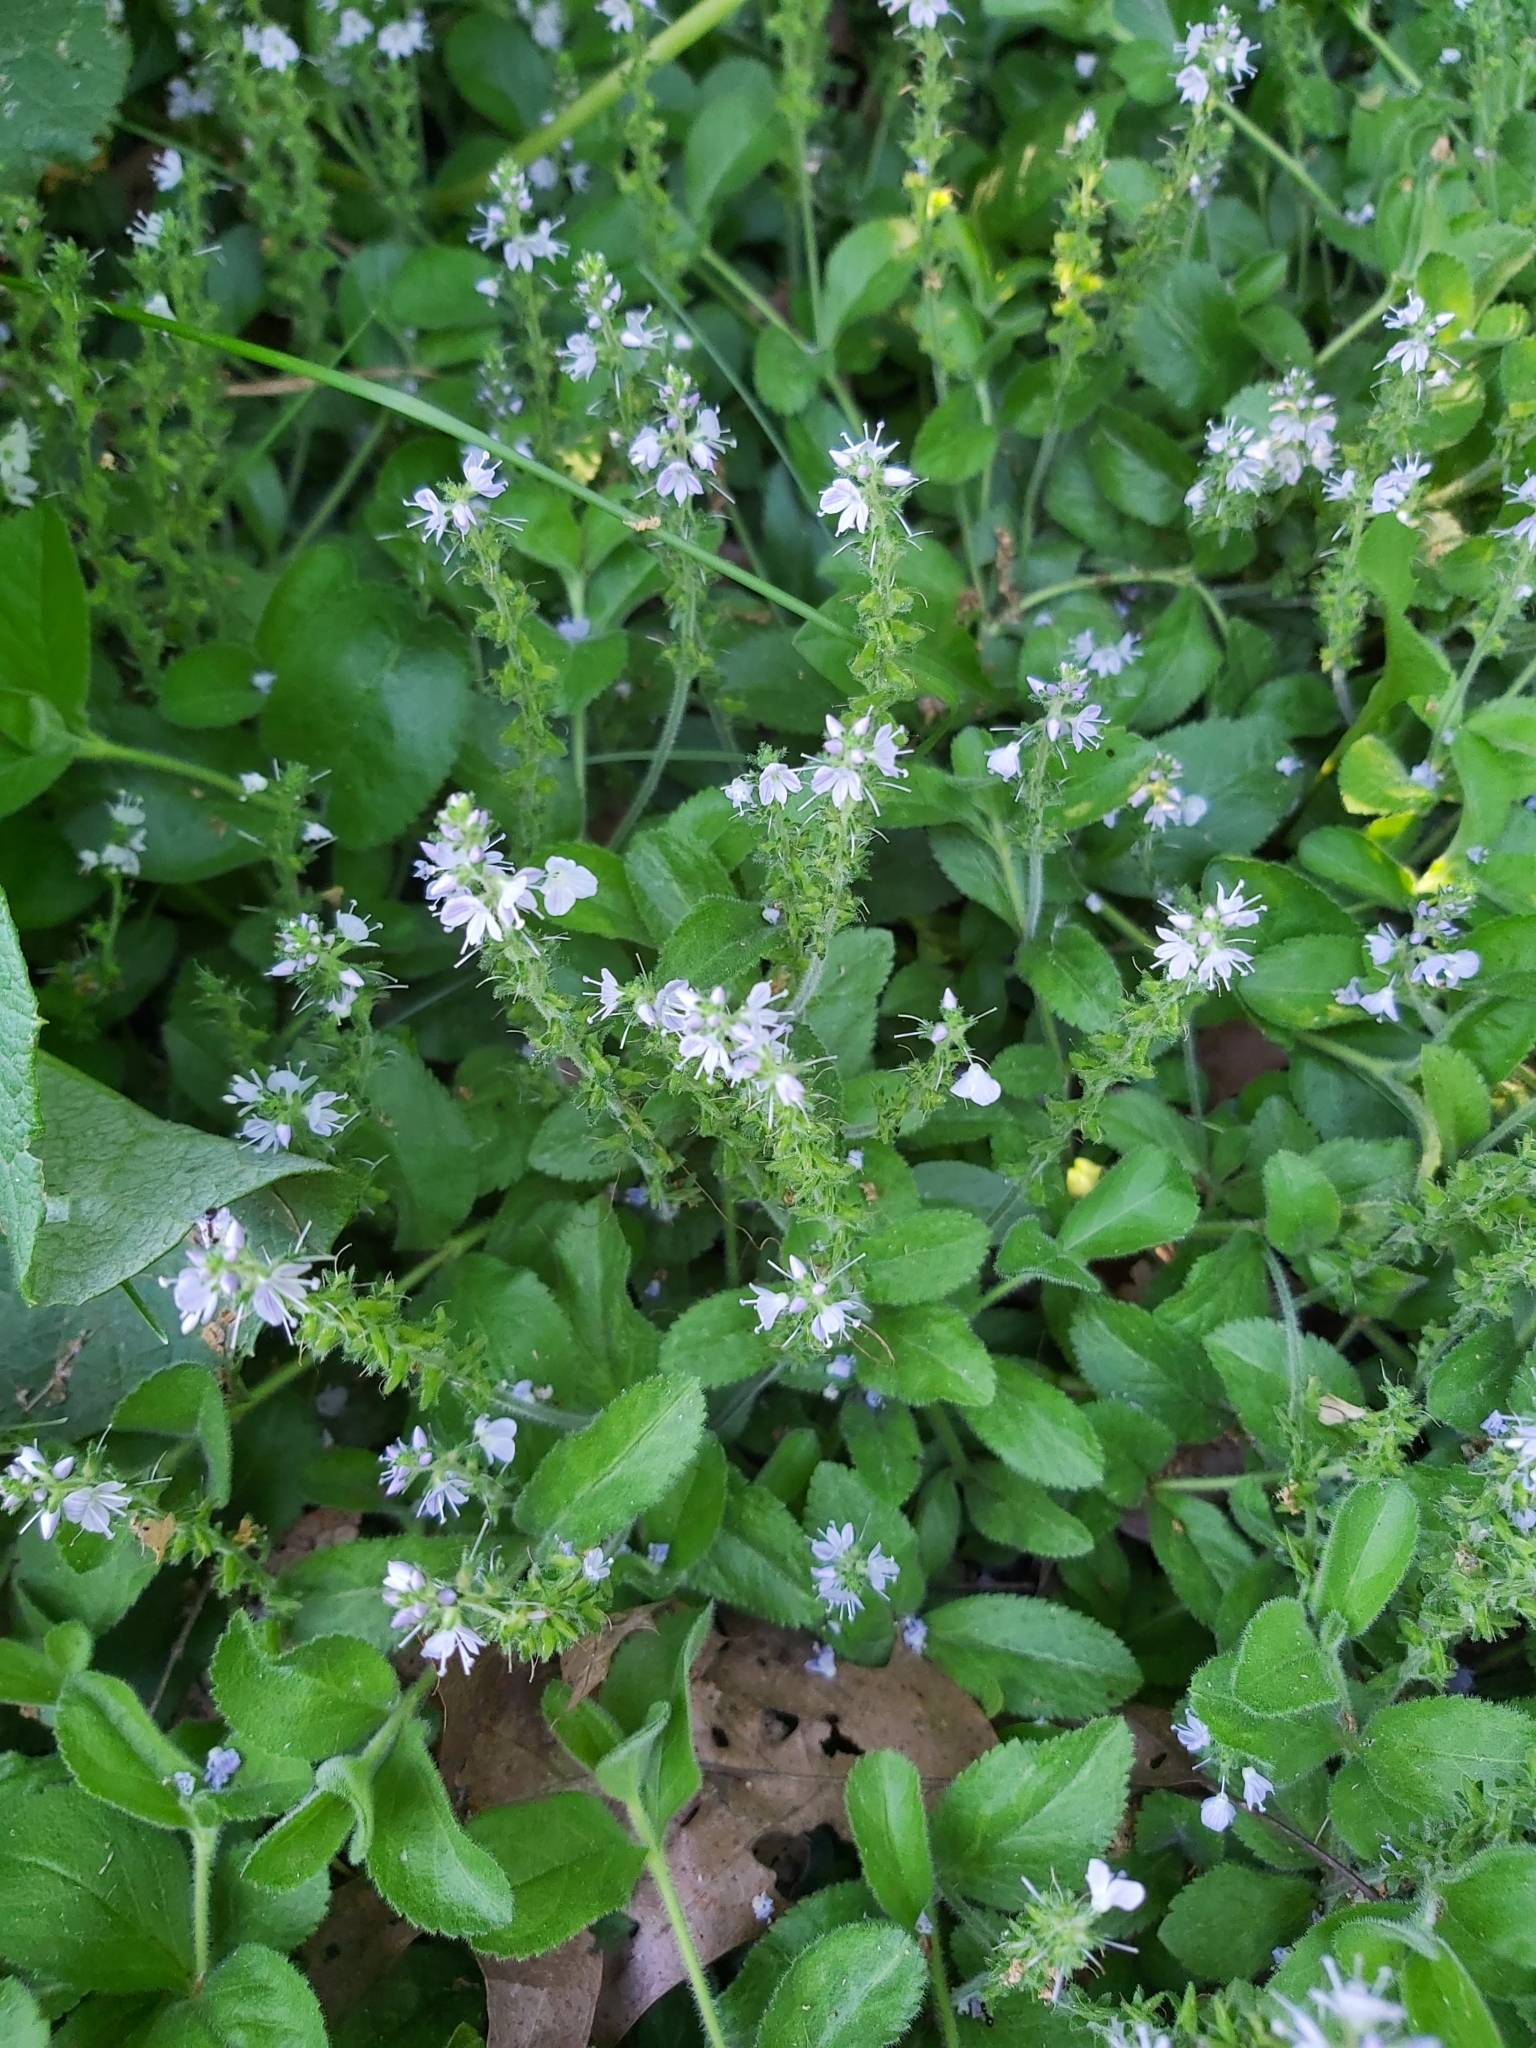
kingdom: Plantae
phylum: Tracheophyta
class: Magnoliopsida
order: Lamiales
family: Plantaginaceae
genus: Veronica
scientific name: Veronica officinalis
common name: Common speedwell
